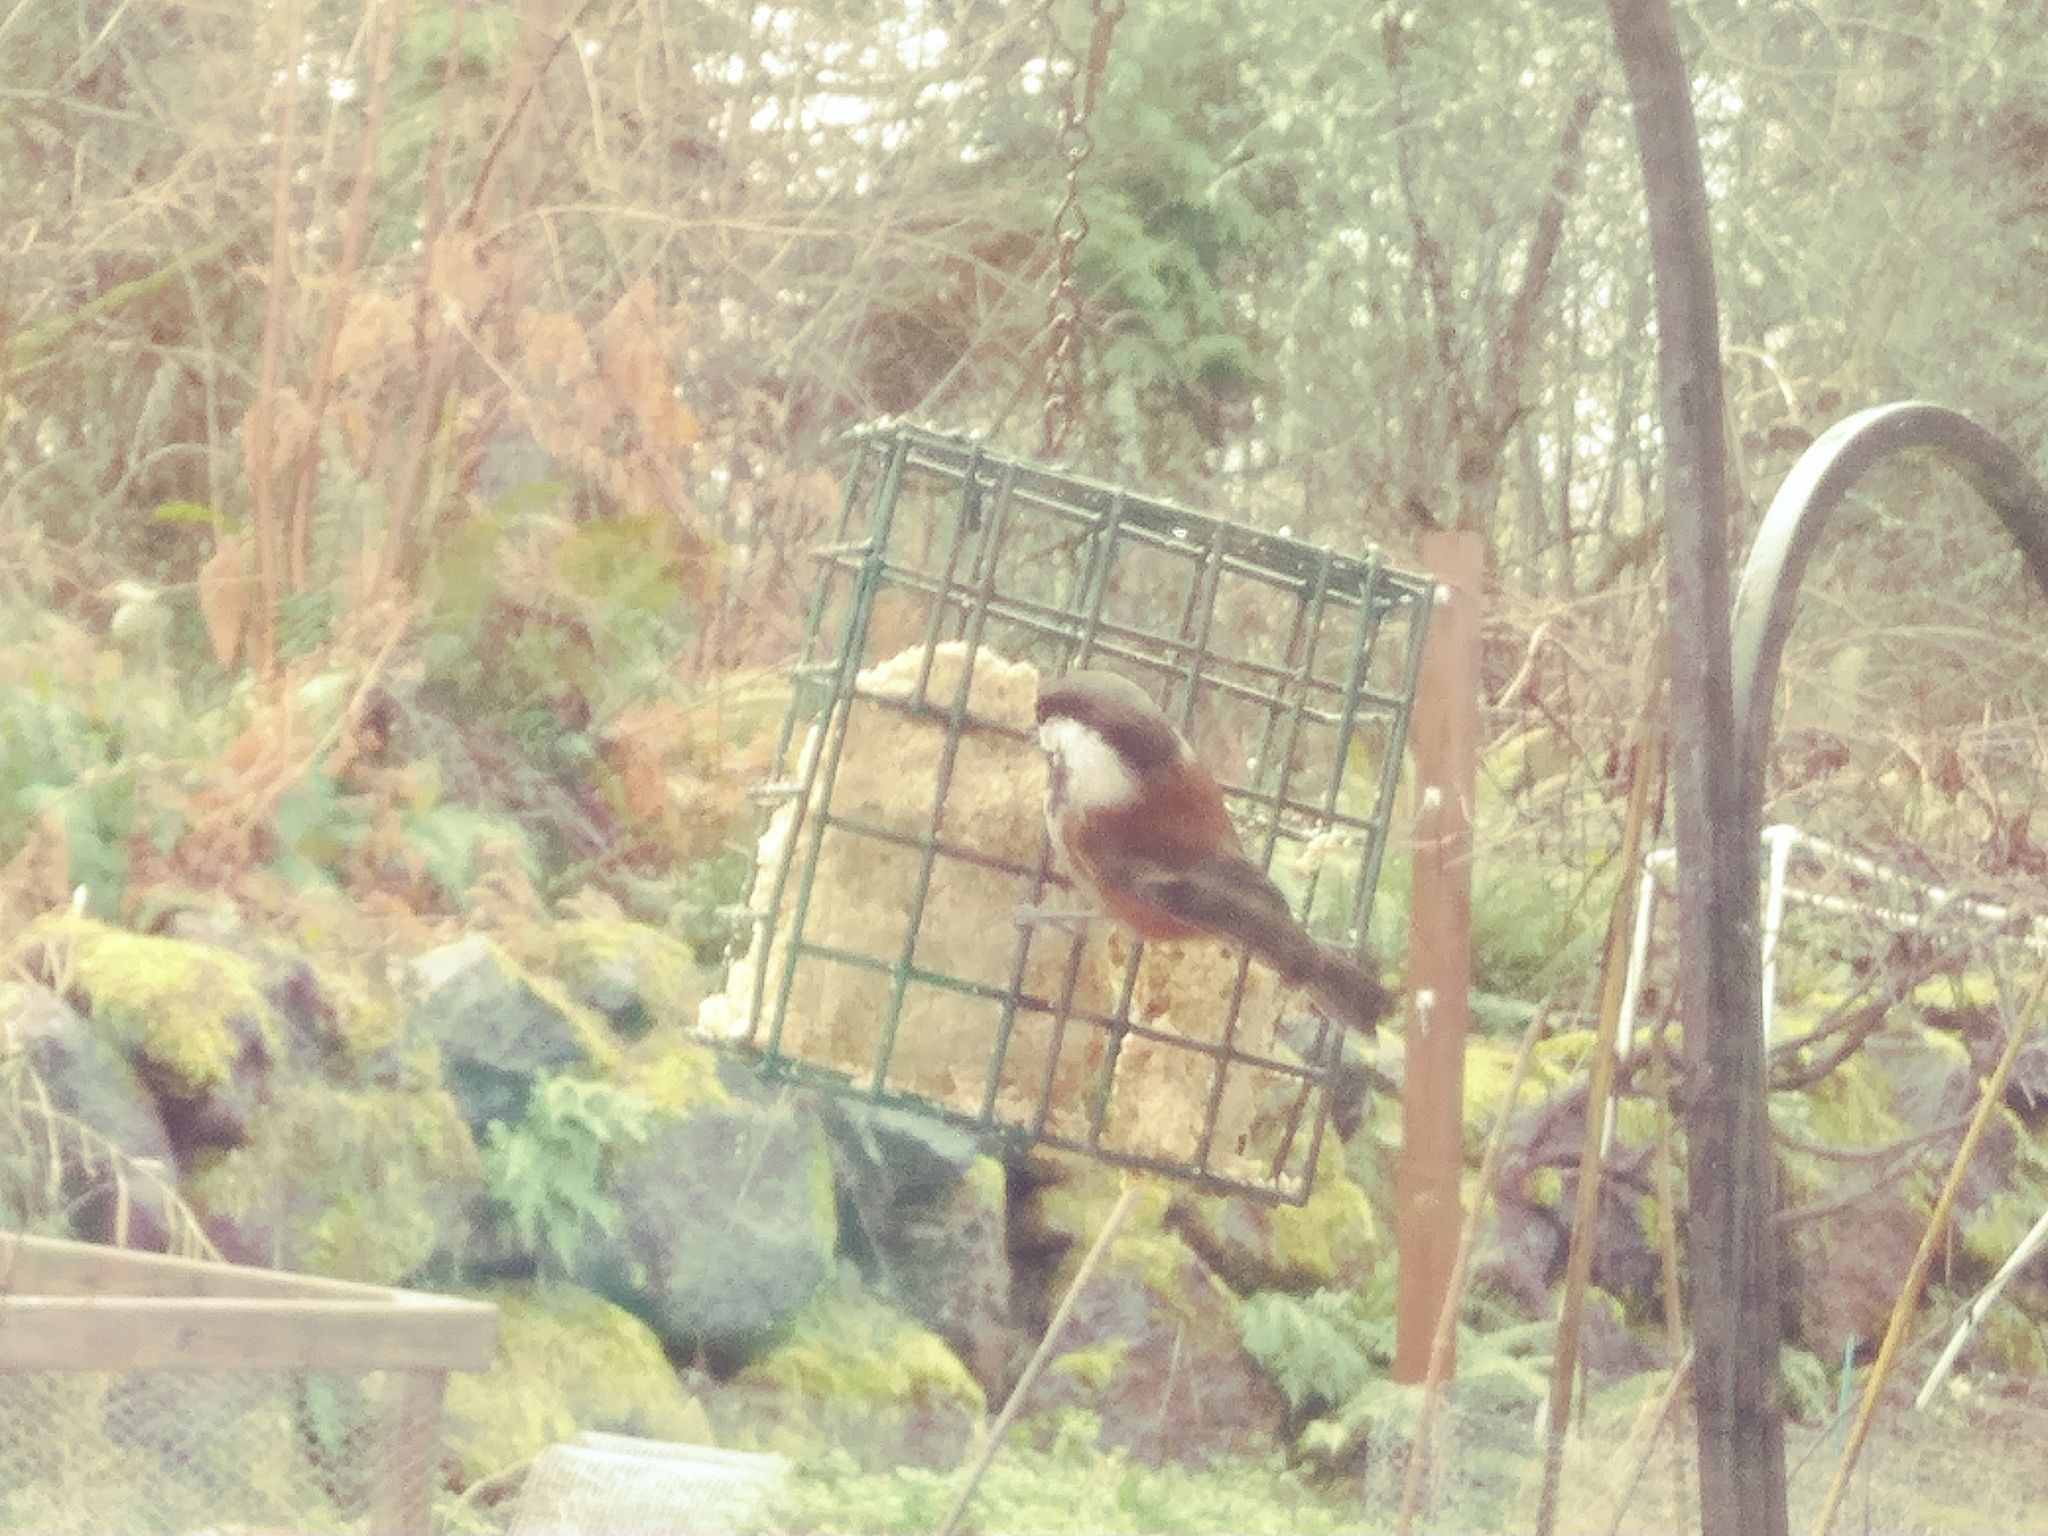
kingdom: Animalia
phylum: Chordata
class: Aves
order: Passeriformes
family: Paridae
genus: Poecile
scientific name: Poecile rufescens
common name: Chestnut-backed chickadee
